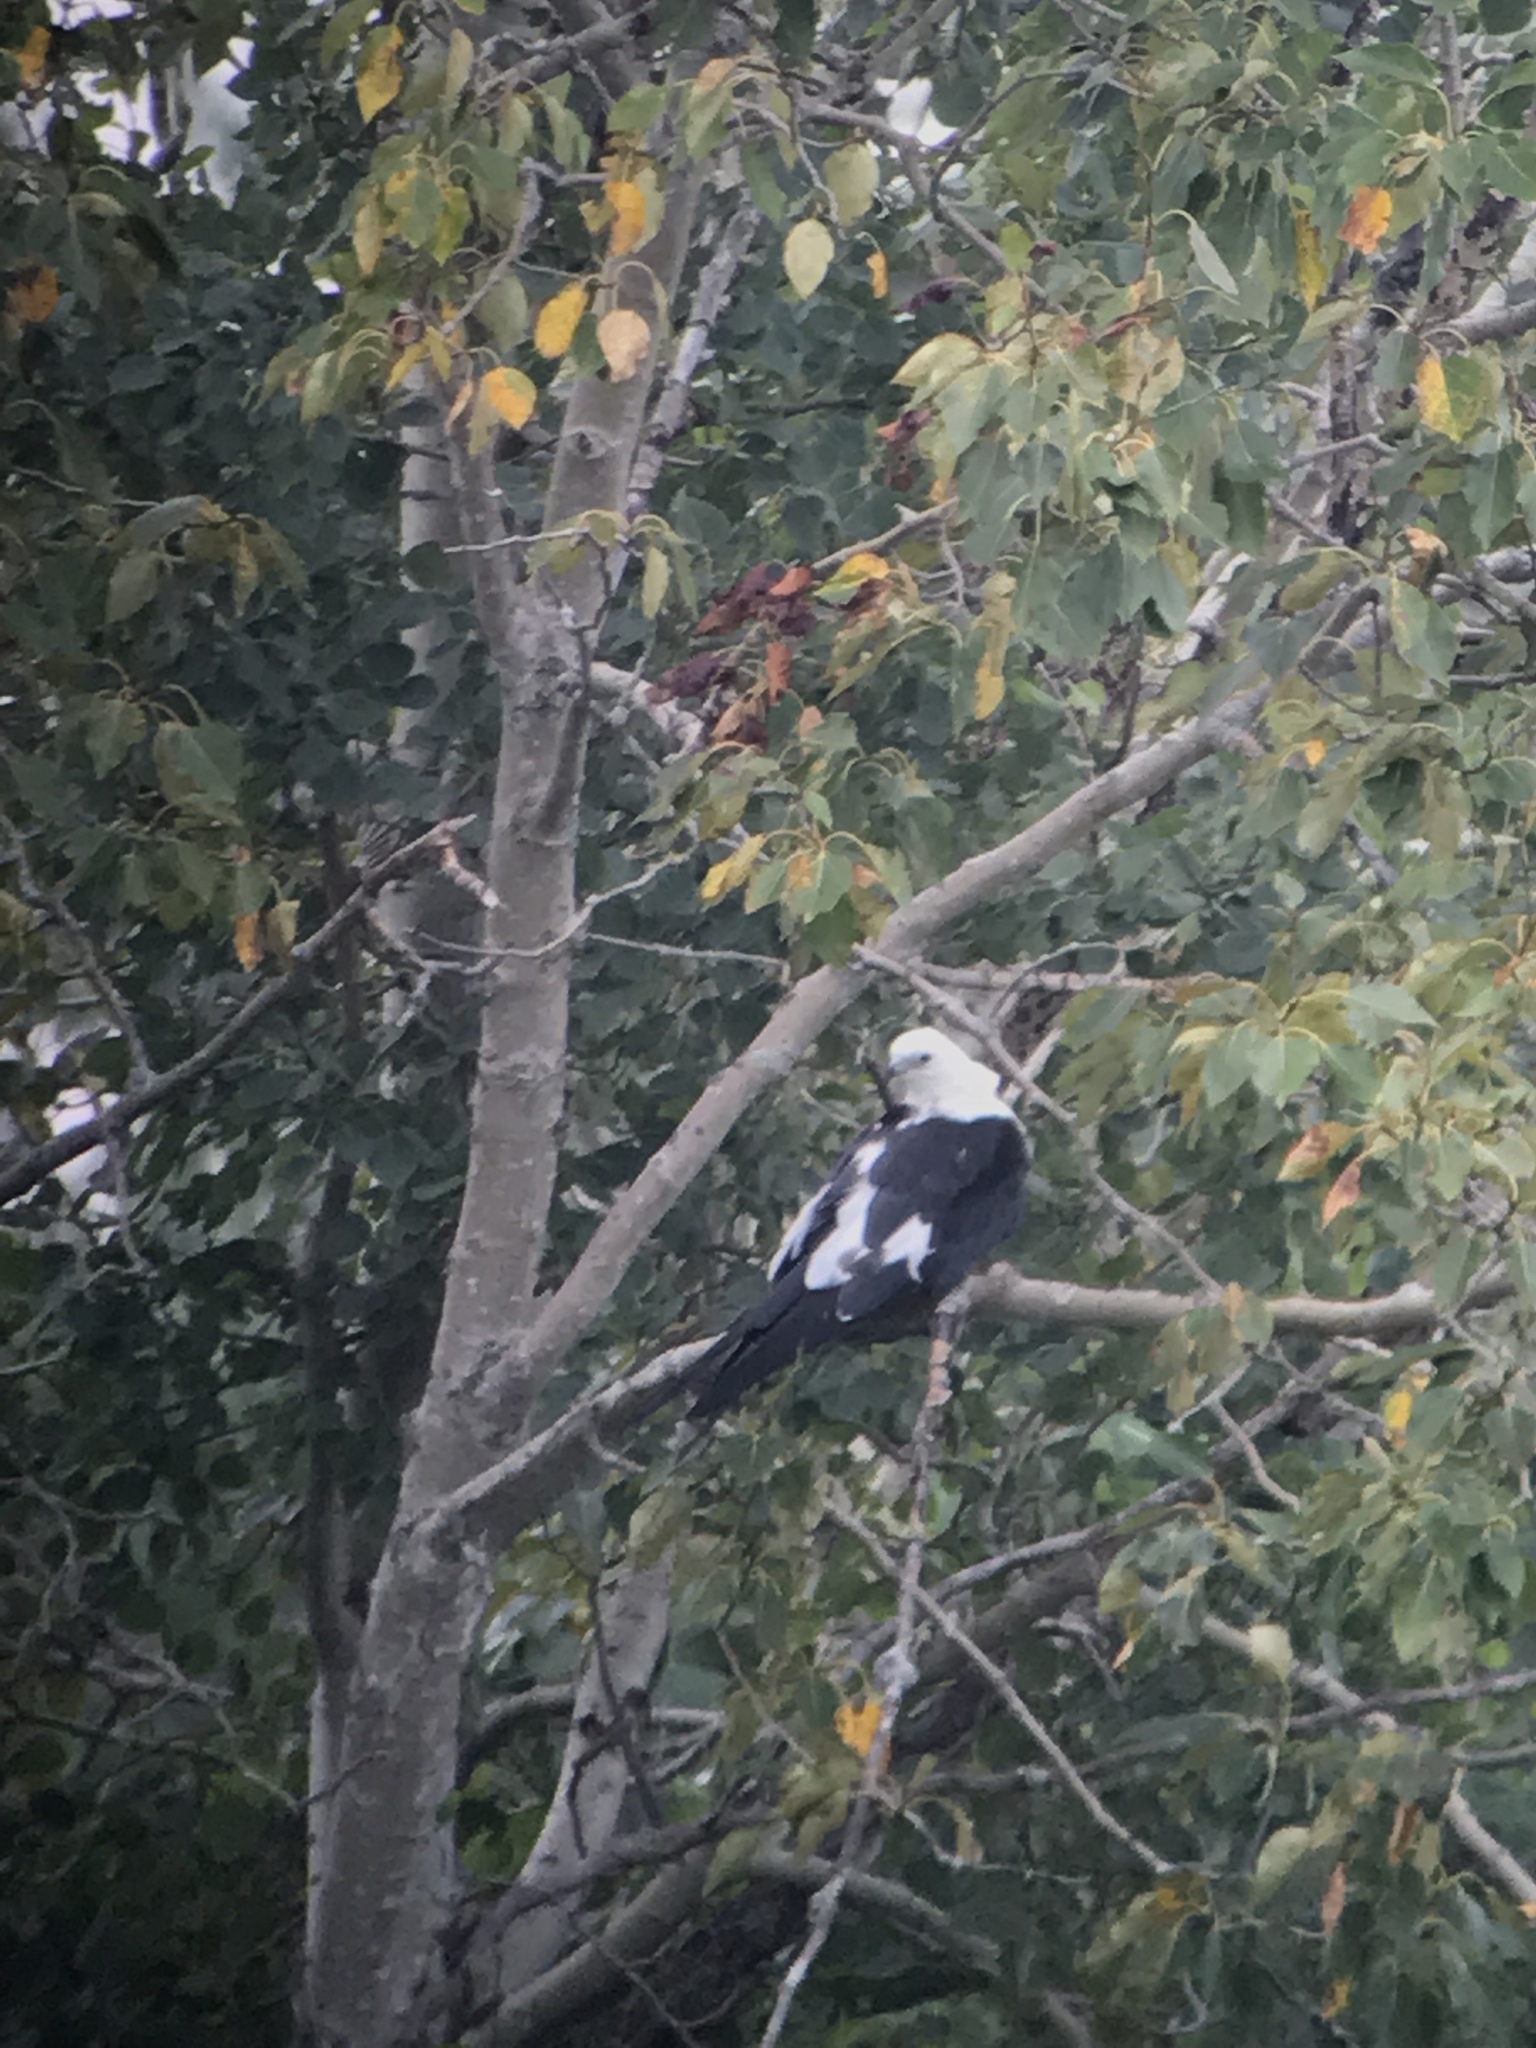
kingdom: Animalia
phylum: Chordata
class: Aves
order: Accipitriformes
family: Accipitridae
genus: Elanoides
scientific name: Elanoides forficatus
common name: Swallow-tailed kite
